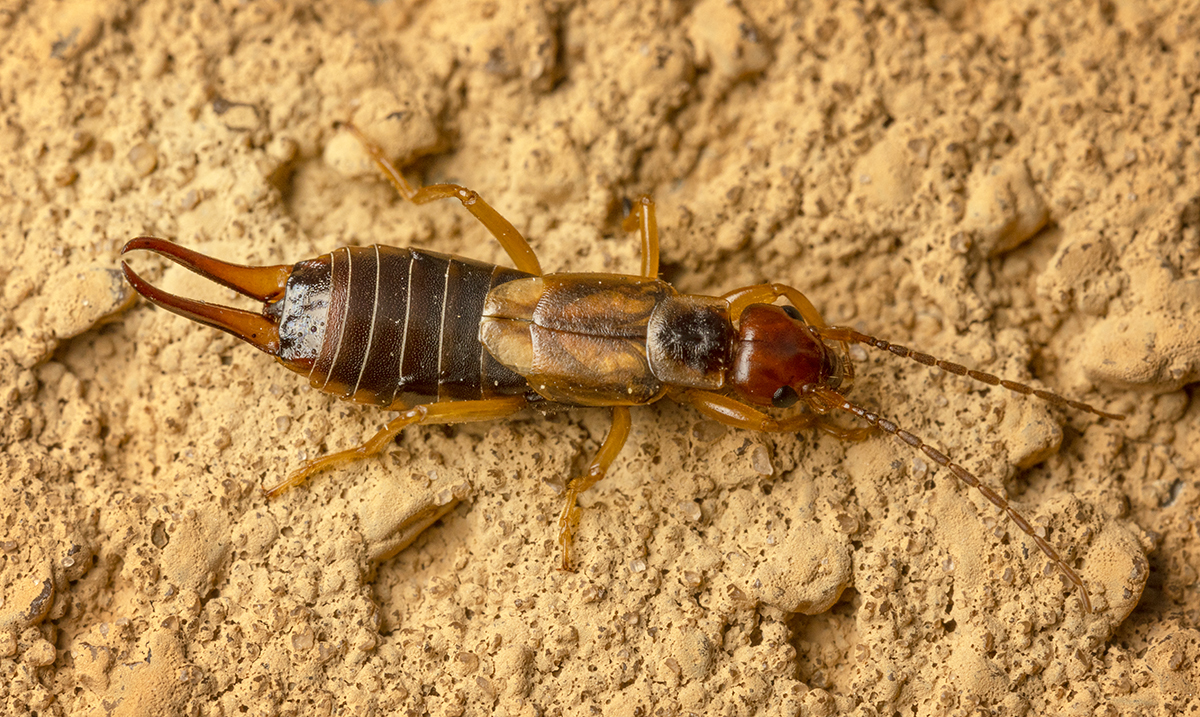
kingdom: Animalia
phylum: Arthropoda
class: Insecta
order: Dermaptera
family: Forficulidae
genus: Forficula
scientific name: Forficula
